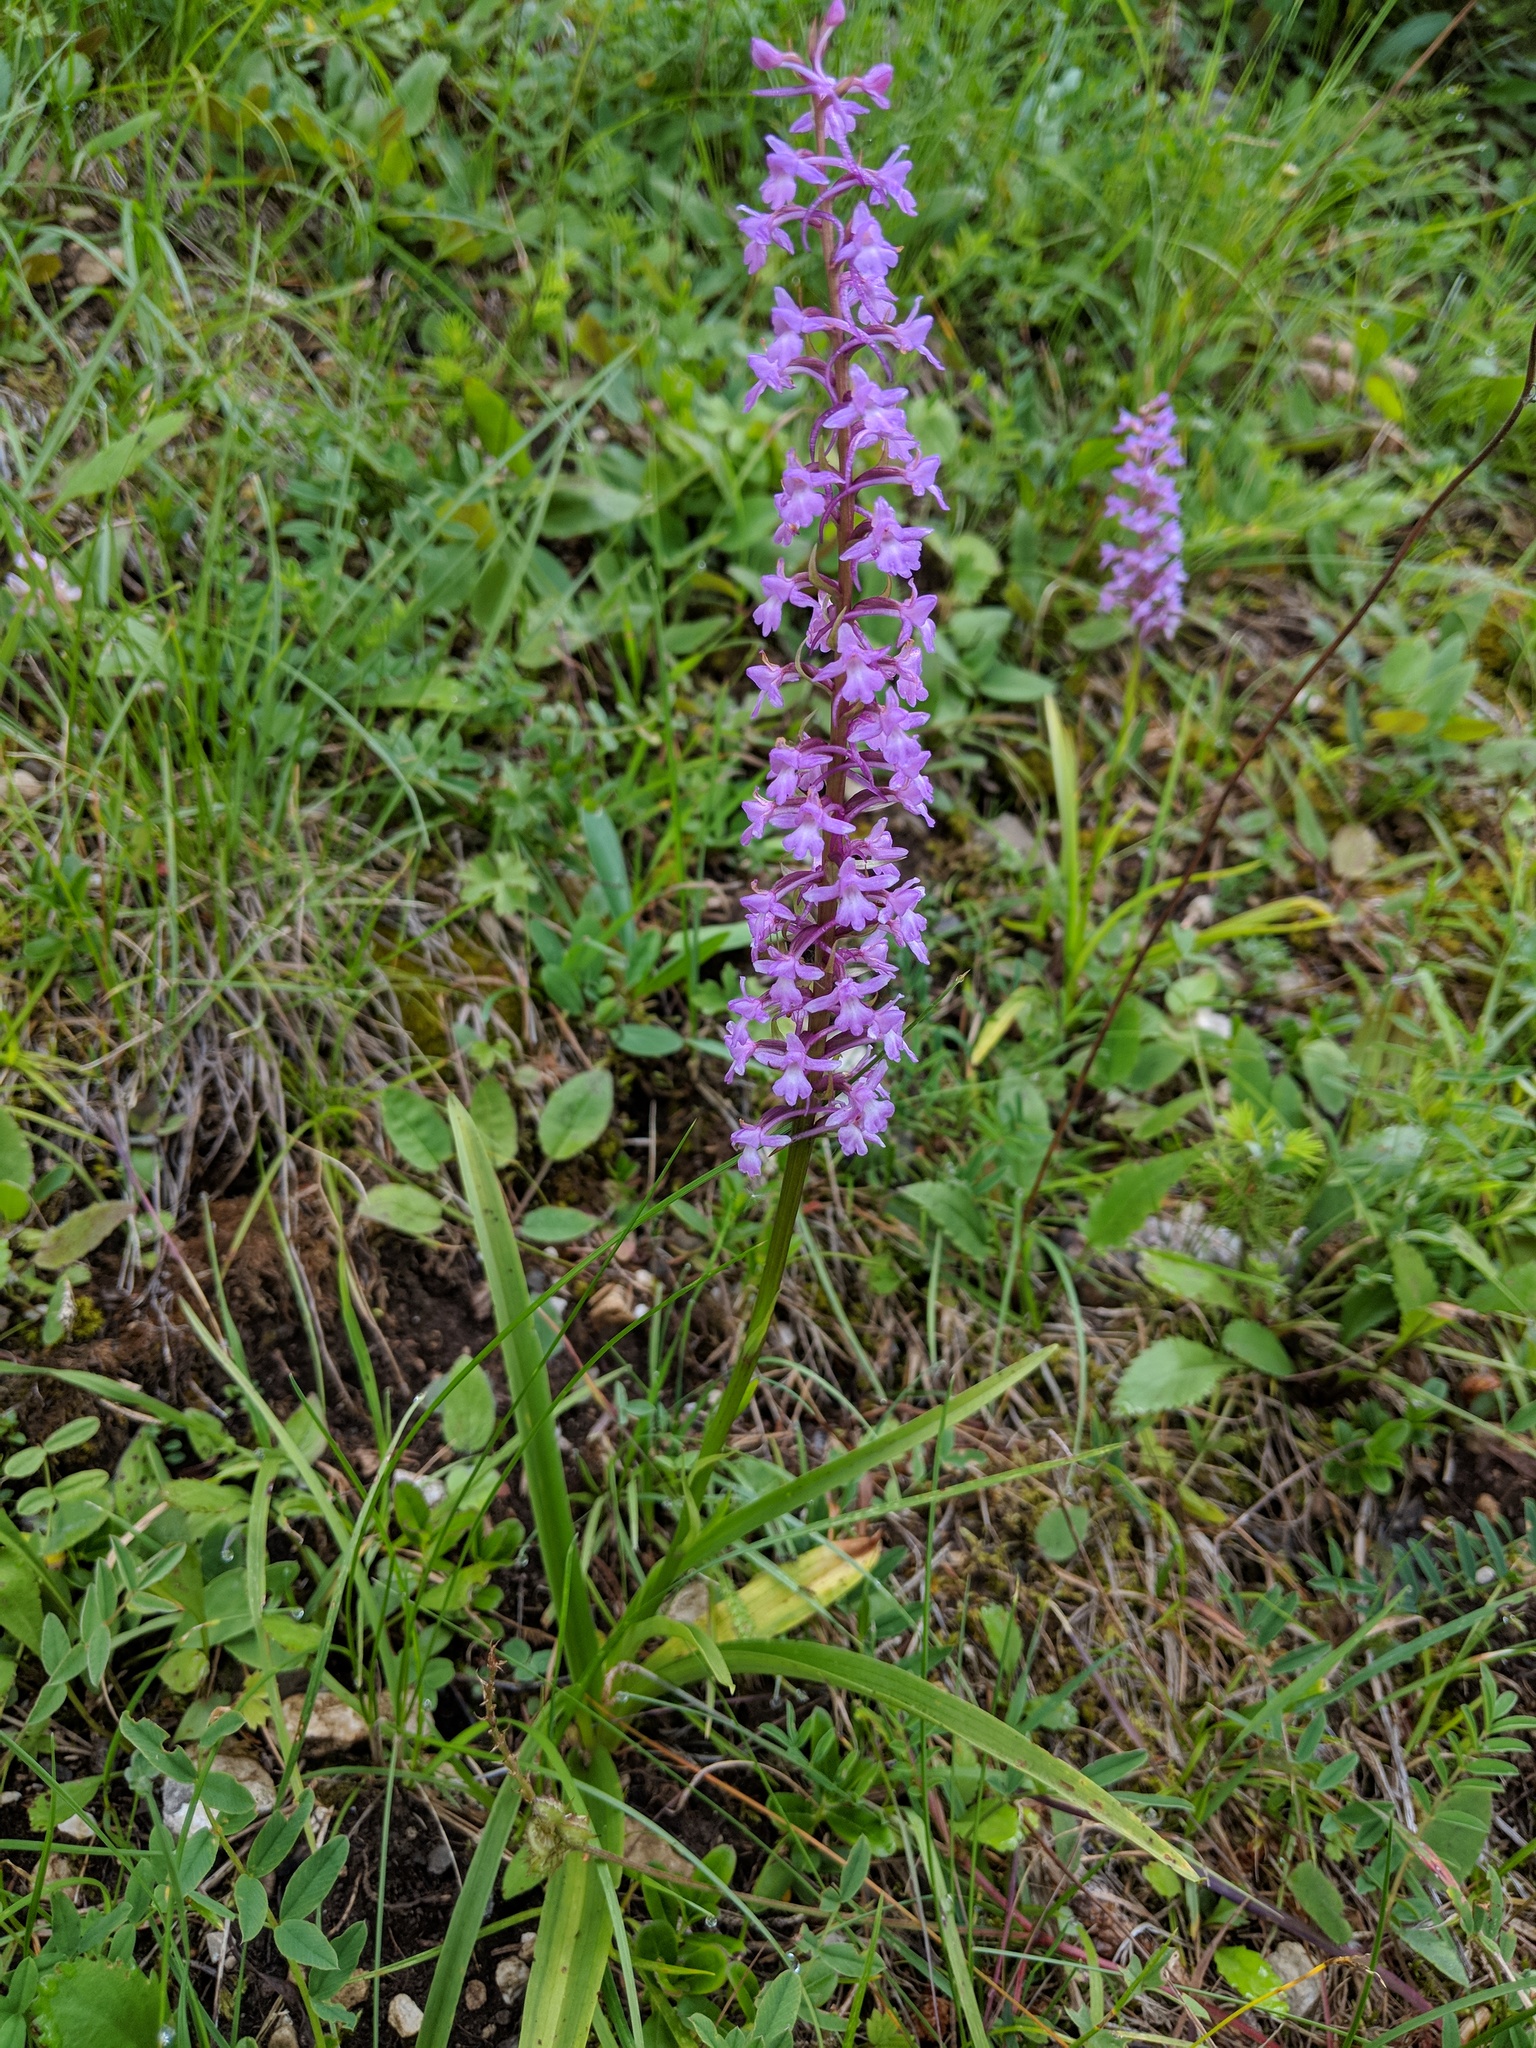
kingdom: Plantae
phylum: Tracheophyta
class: Liliopsida
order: Asparagales
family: Orchidaceae
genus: Gymnadenia
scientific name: Gymnadenia conopsea
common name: Fragrant orchid
